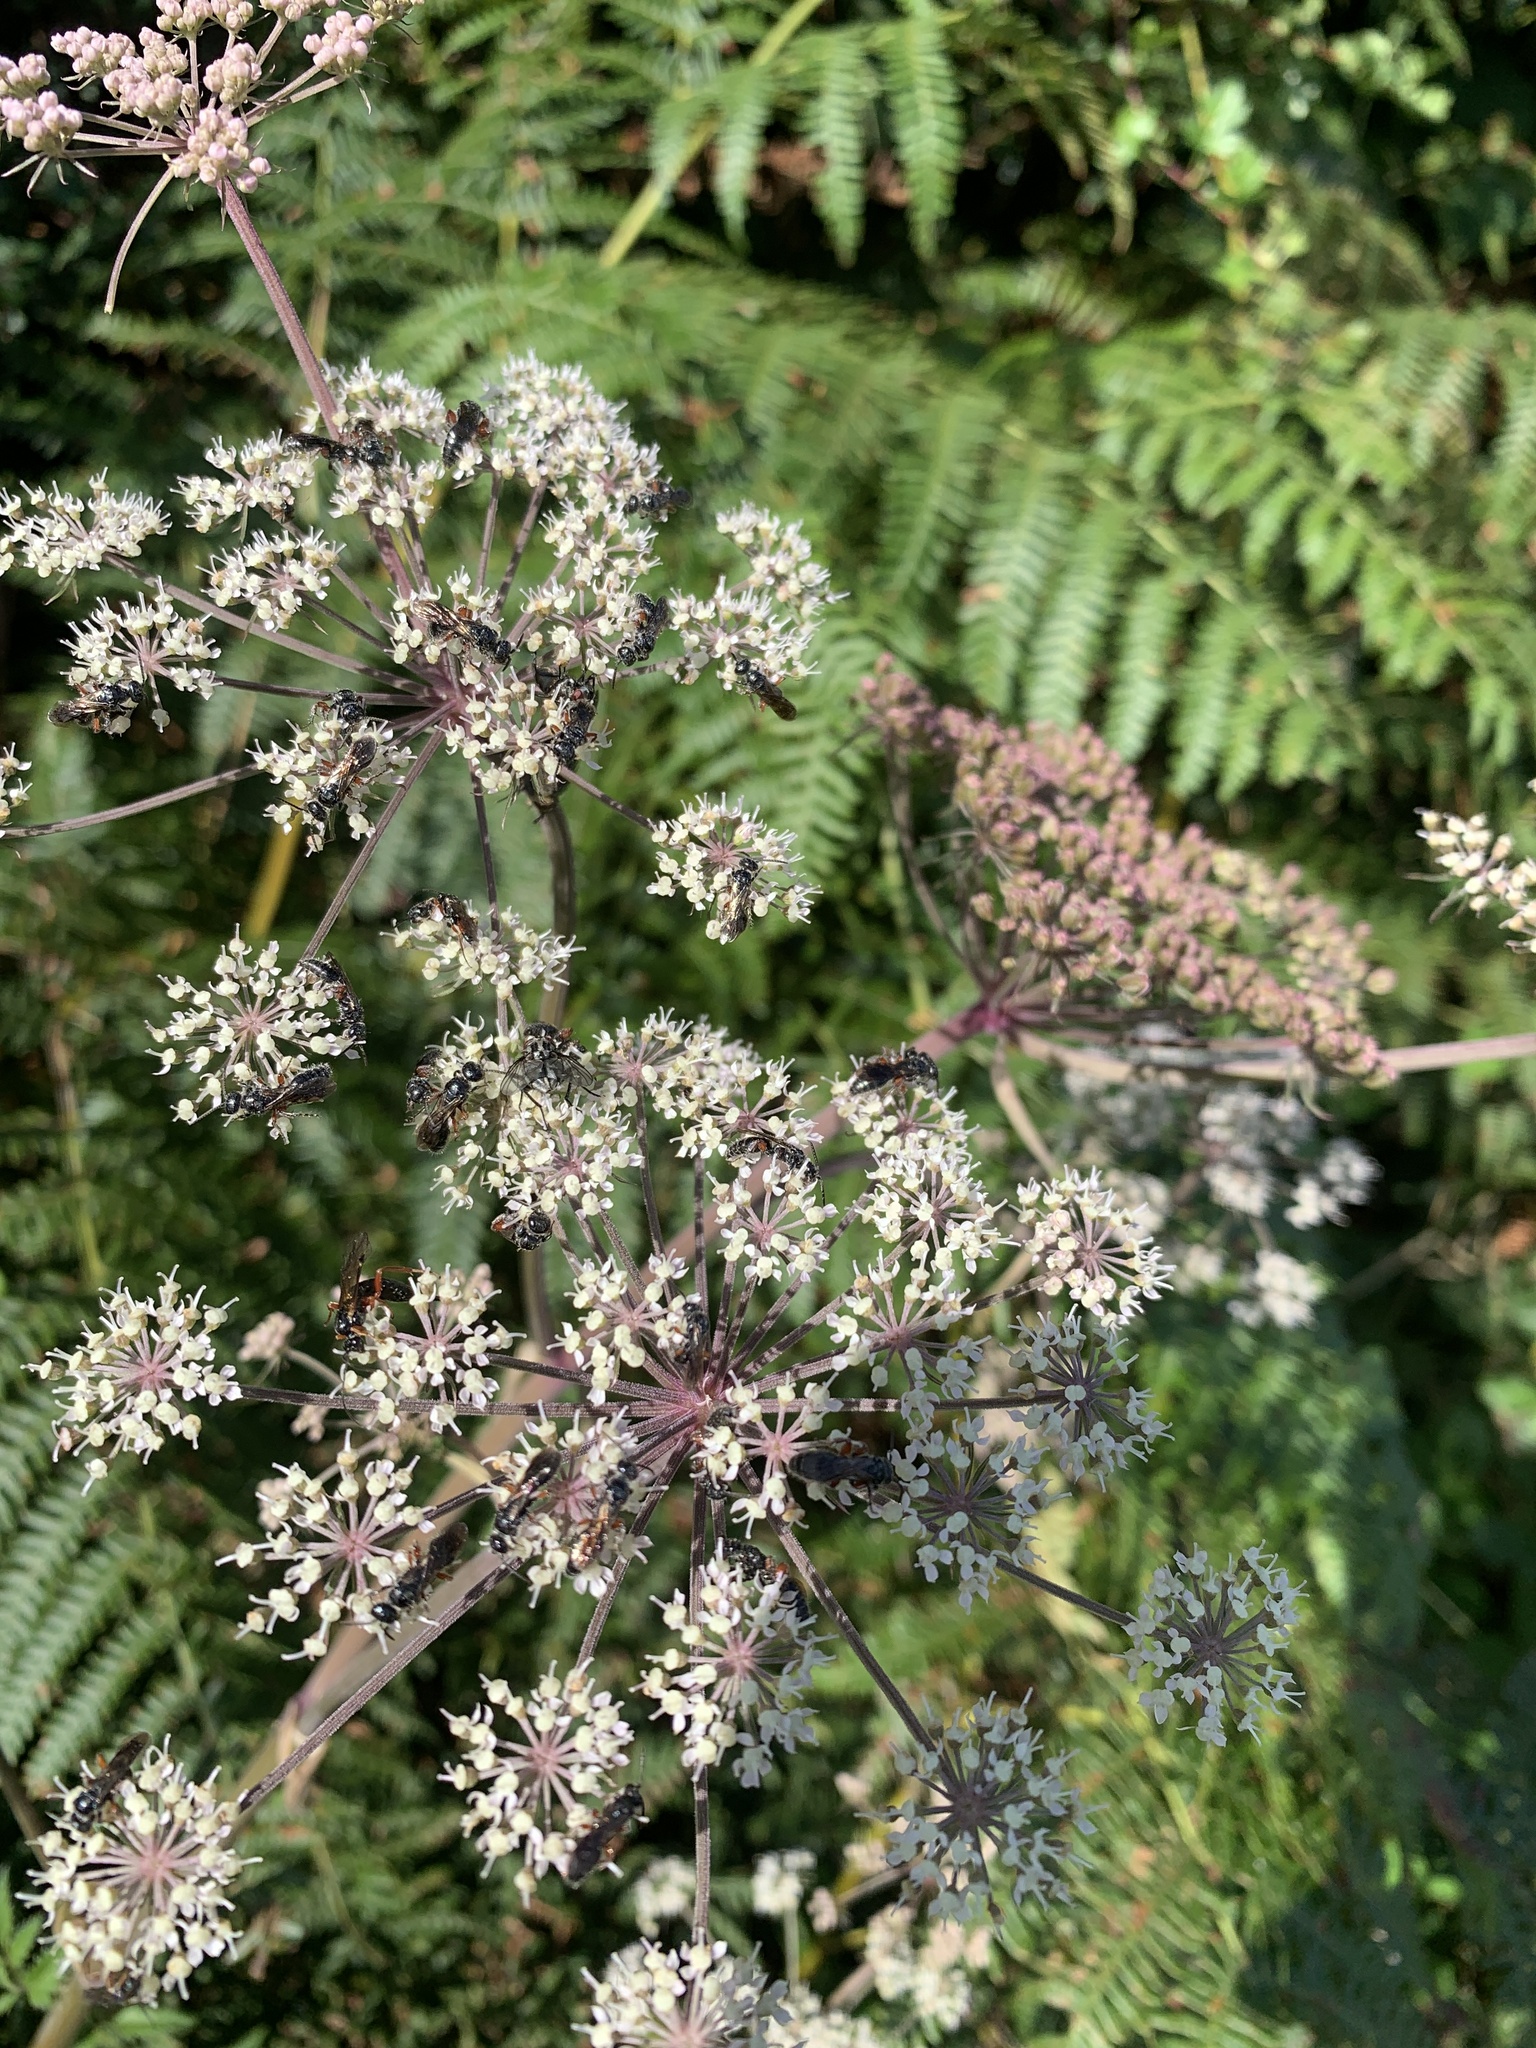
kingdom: Plantae
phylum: Tracheophyta
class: Magnoliopsida
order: Apiales
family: Apiaceae
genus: Angelica
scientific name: Angelica sylvestris
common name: Wild angelica
